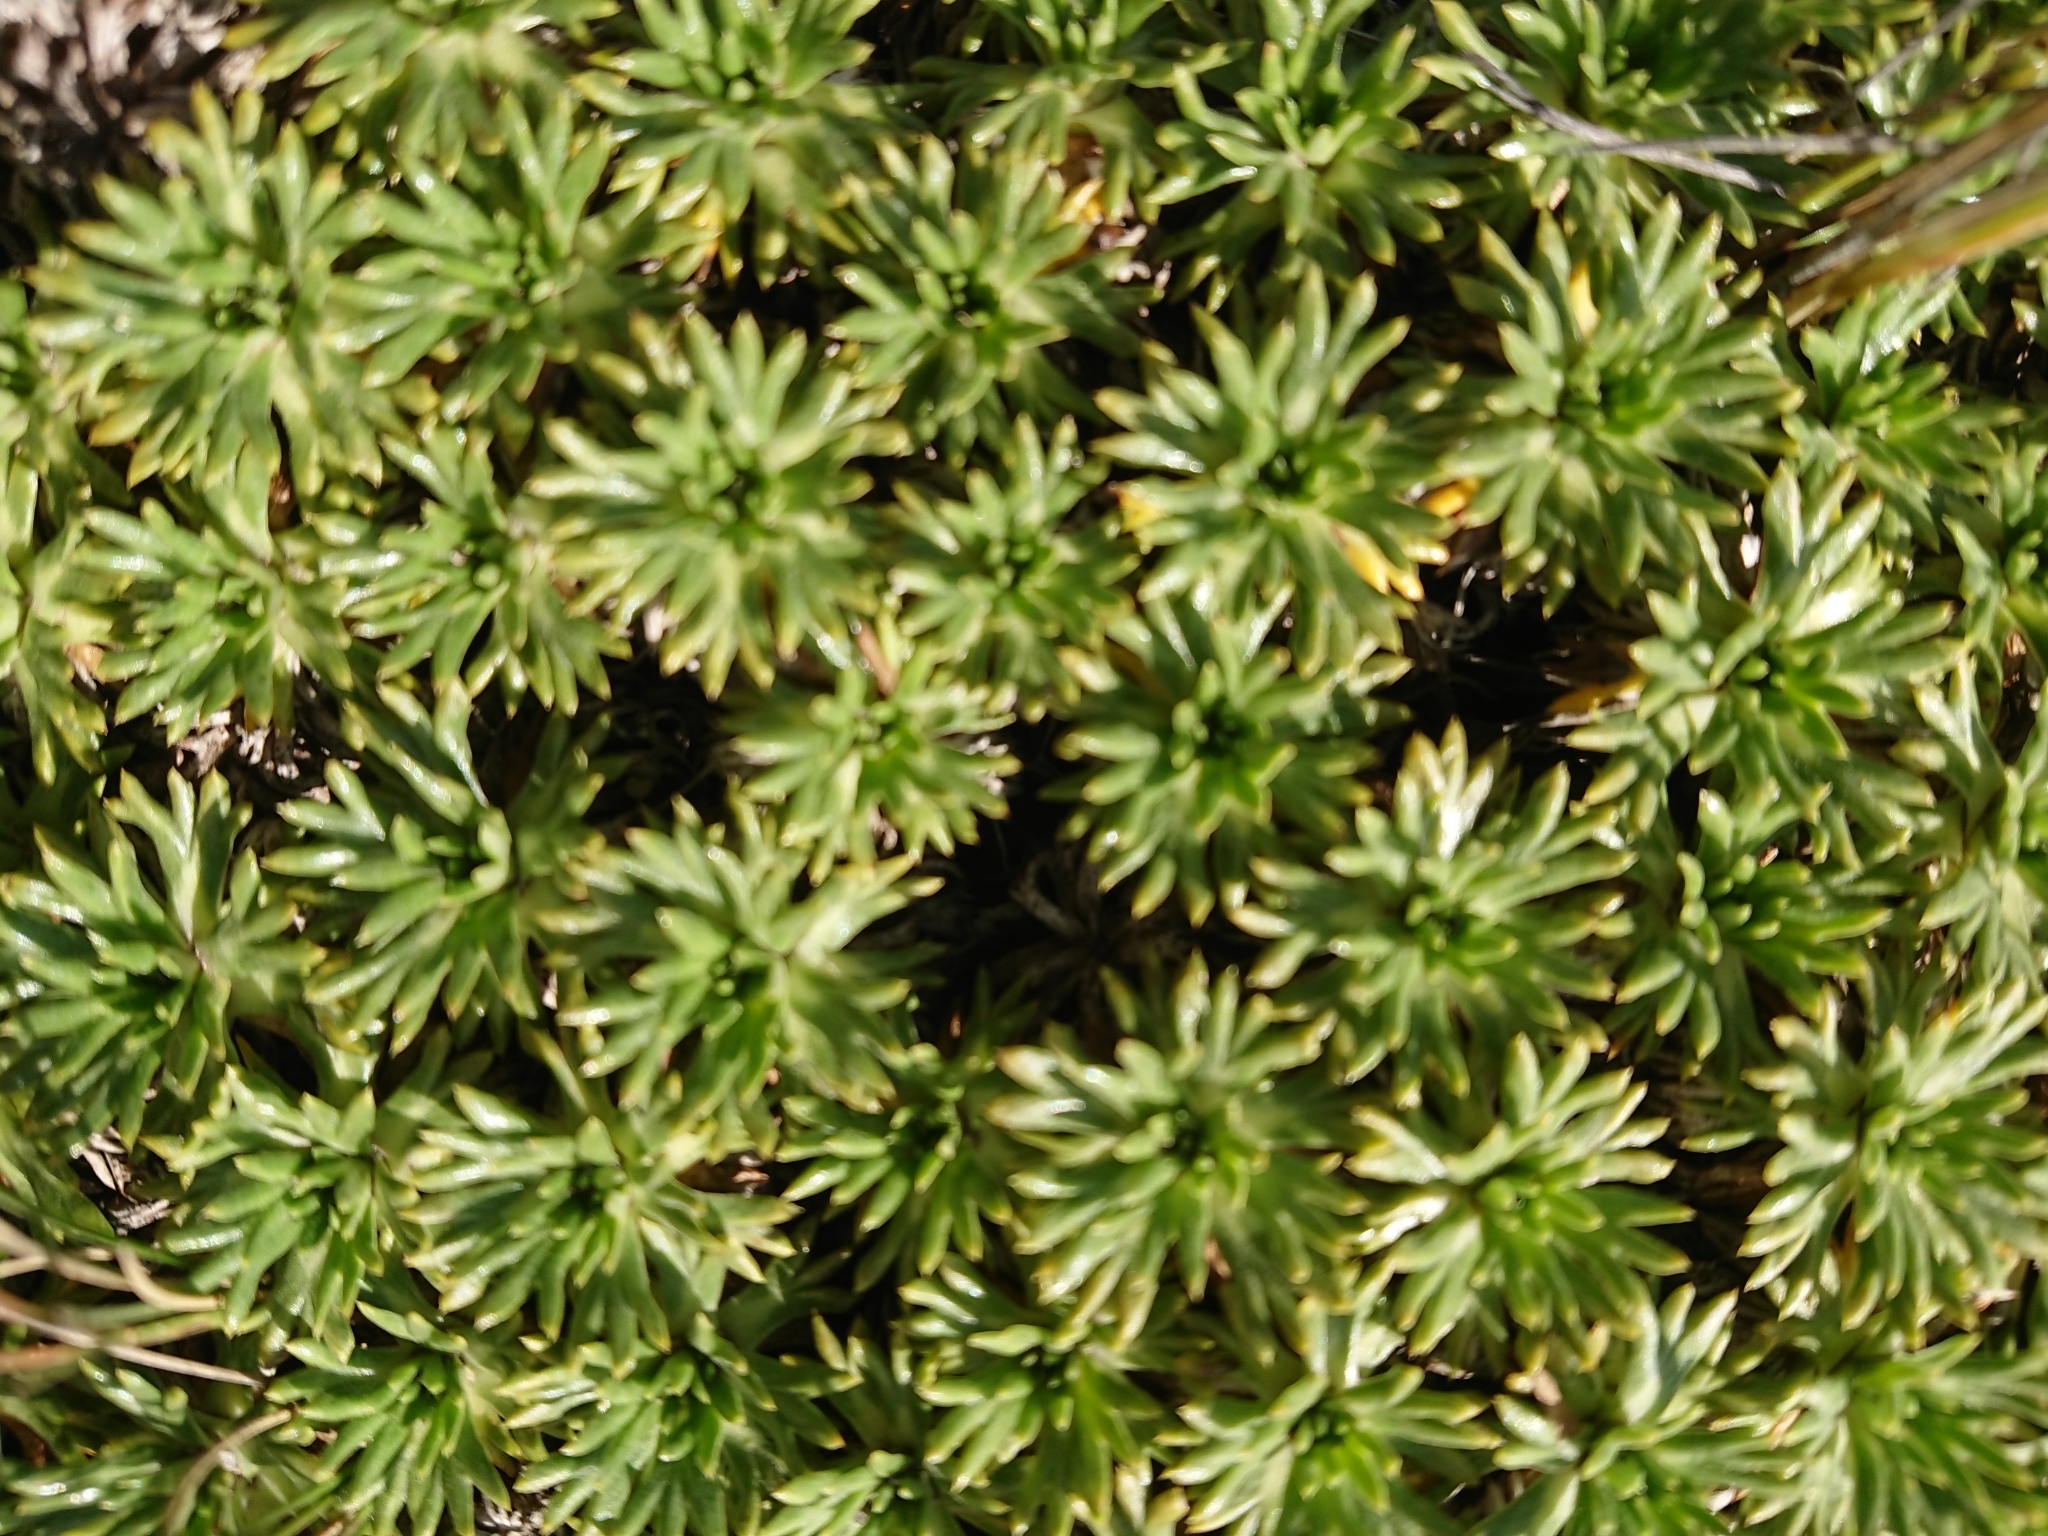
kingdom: Plantae
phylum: Tracheophyta
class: Magnoliopsida
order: Apiales
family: Apiaceae
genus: Azorella
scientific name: Azorella trifurcata
